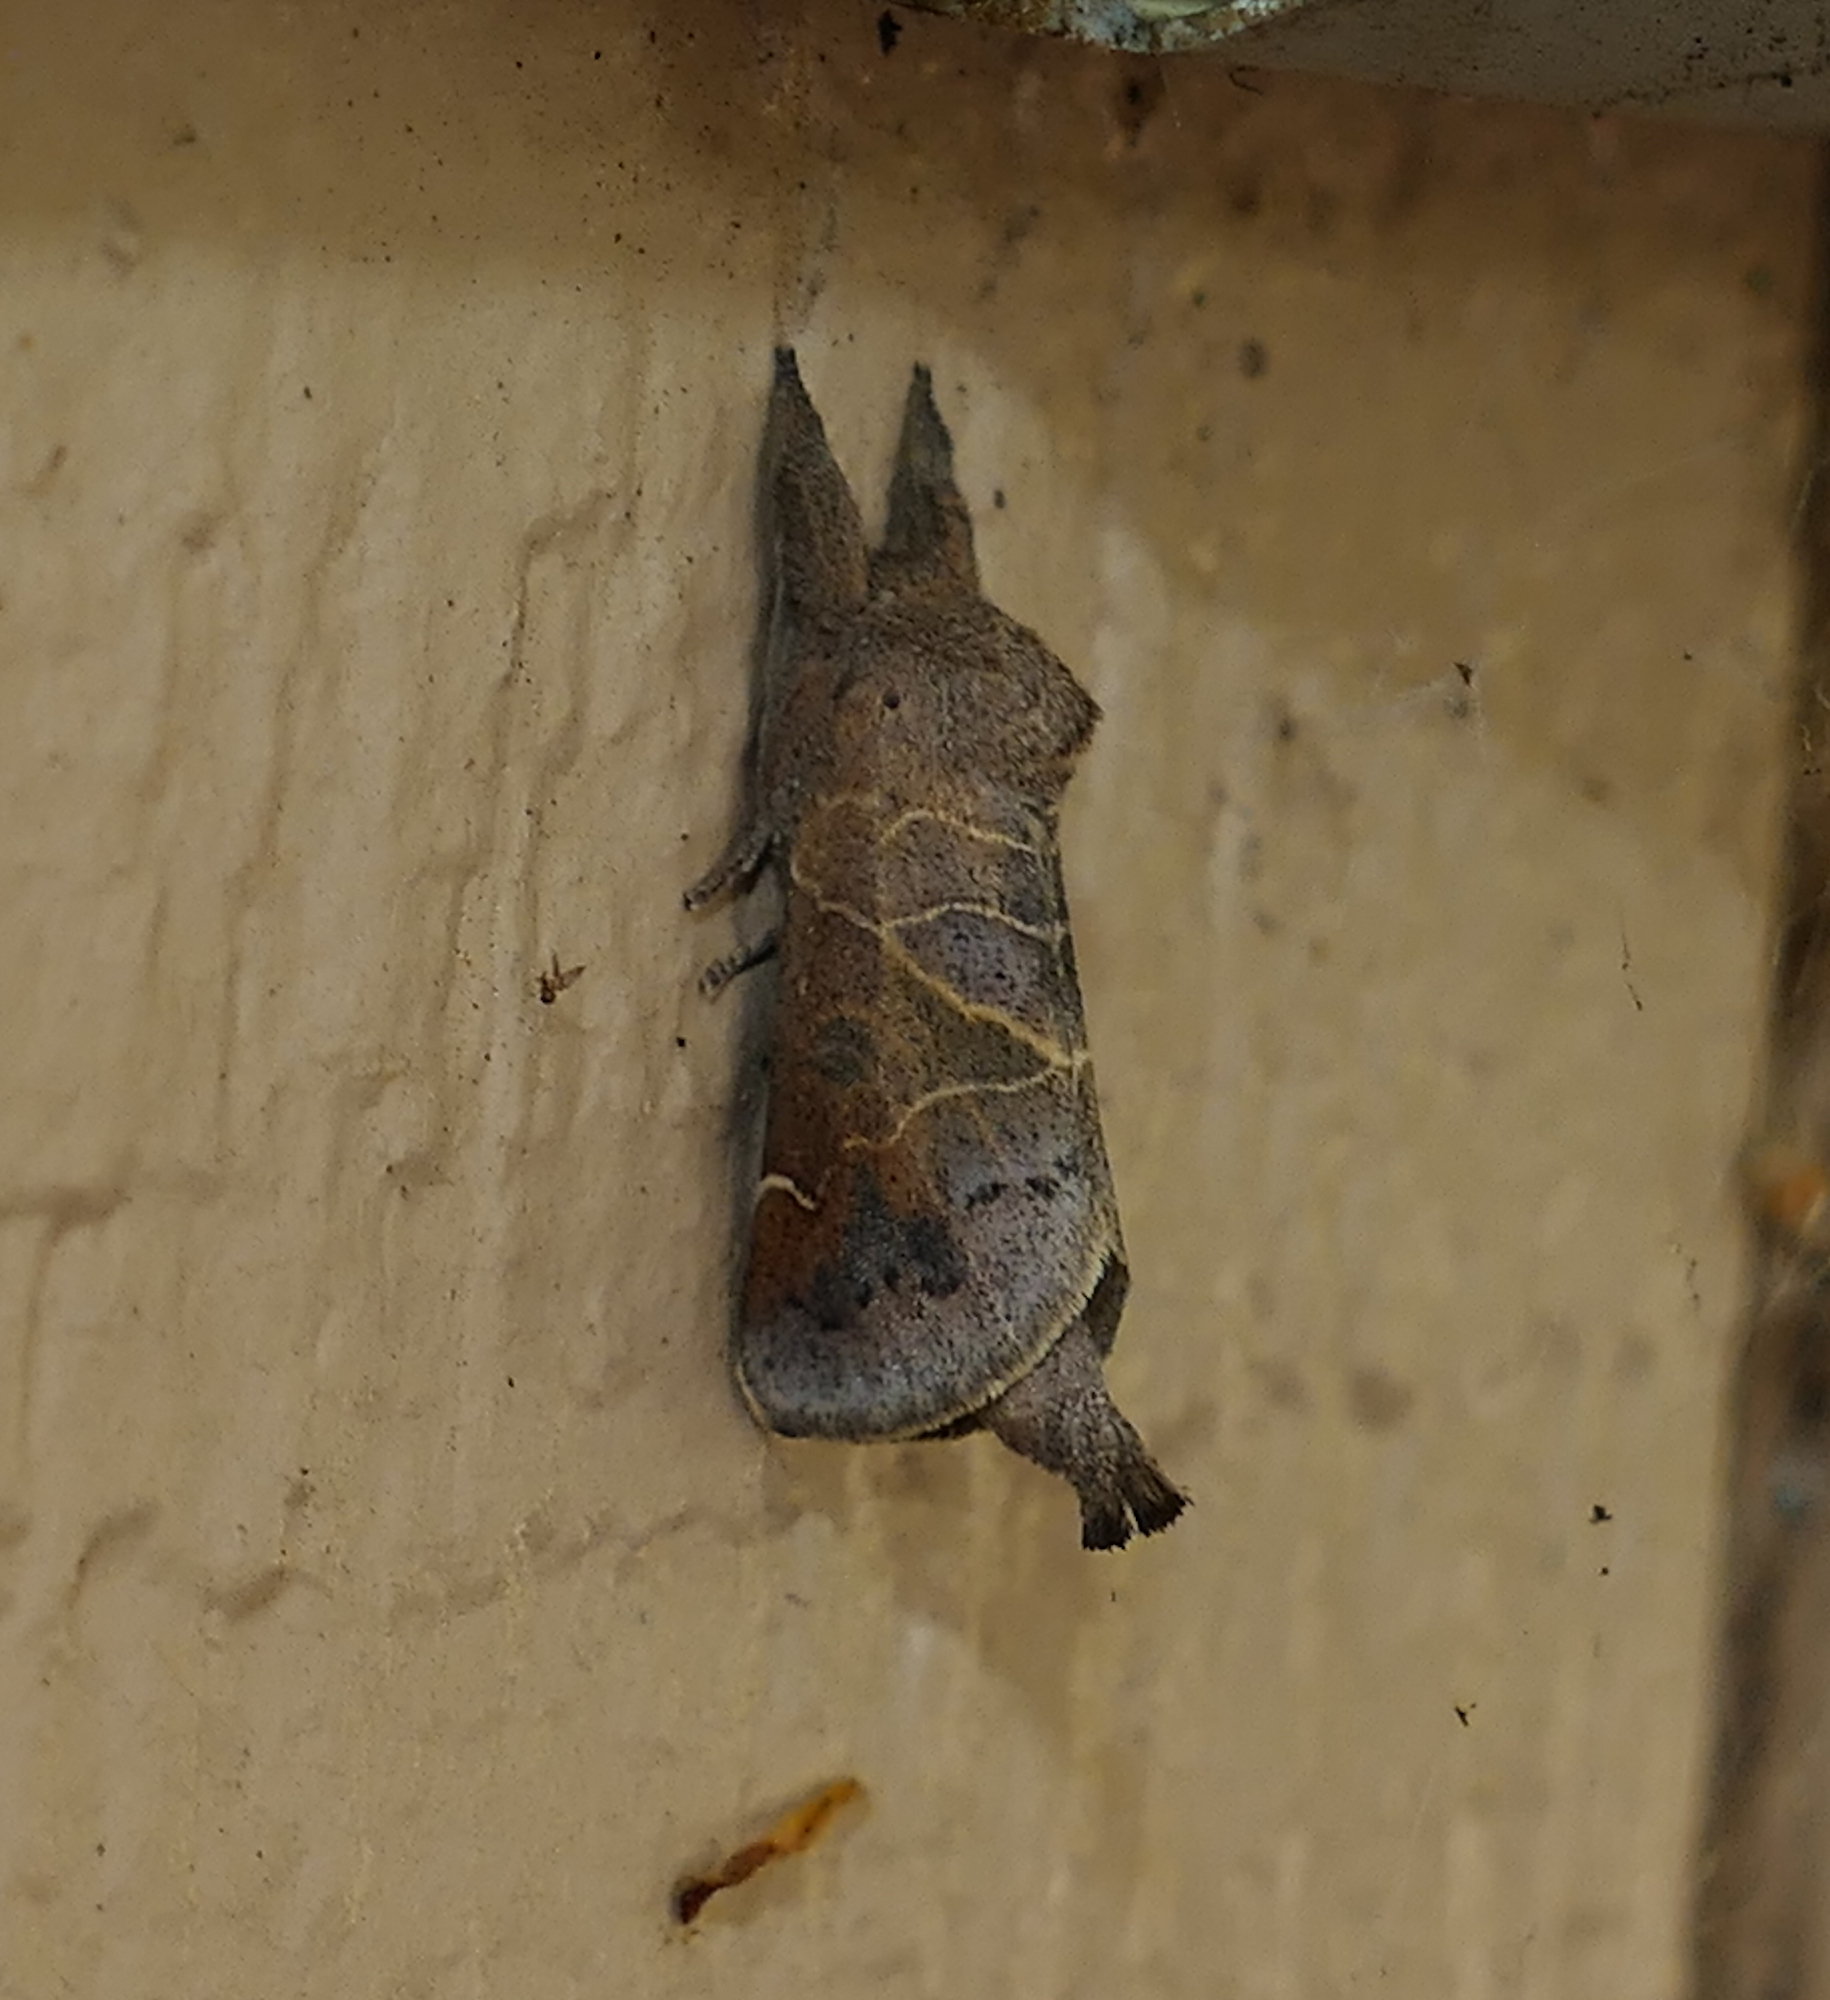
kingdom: Animalia
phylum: Arthropoda
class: Insecta
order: Lepidoptera
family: Notodontidae
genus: Clostera
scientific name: Clostera inornata
